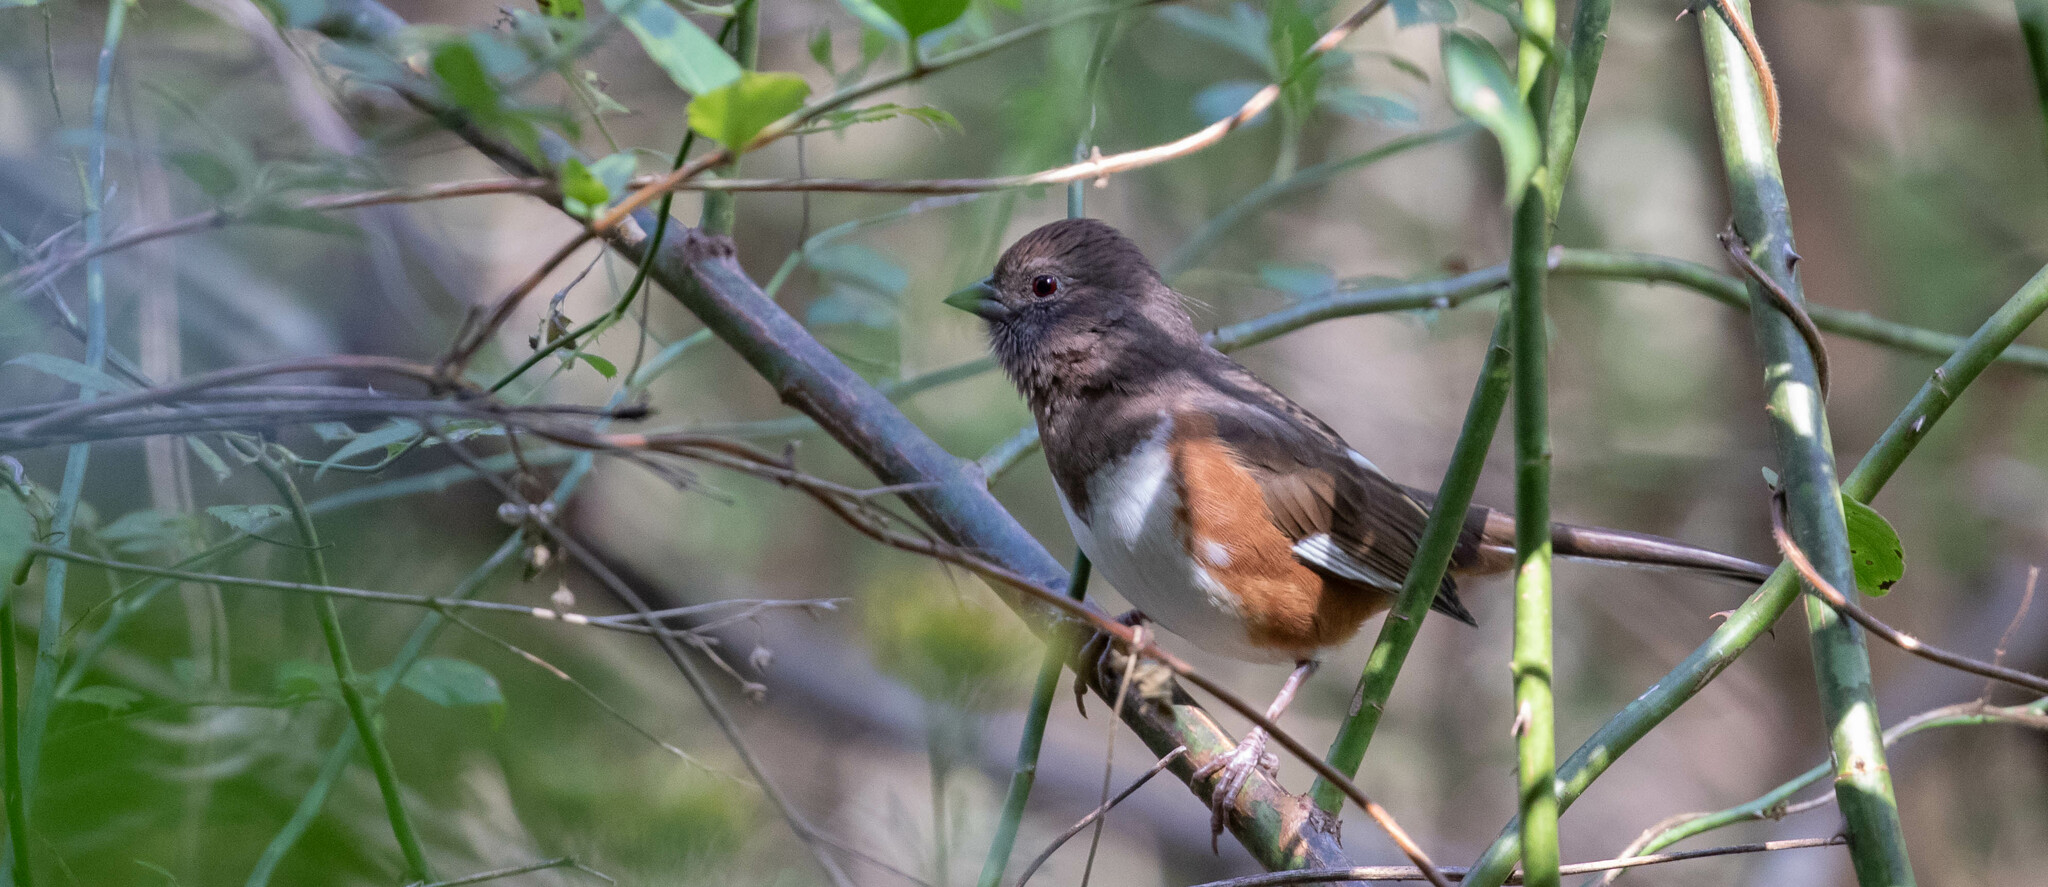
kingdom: Animalia
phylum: Chordata
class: Aves
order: Passeriformes
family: Passerellidae
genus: Pipilo
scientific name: Pipilo erythrophthalmus
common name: Eastern towhee
